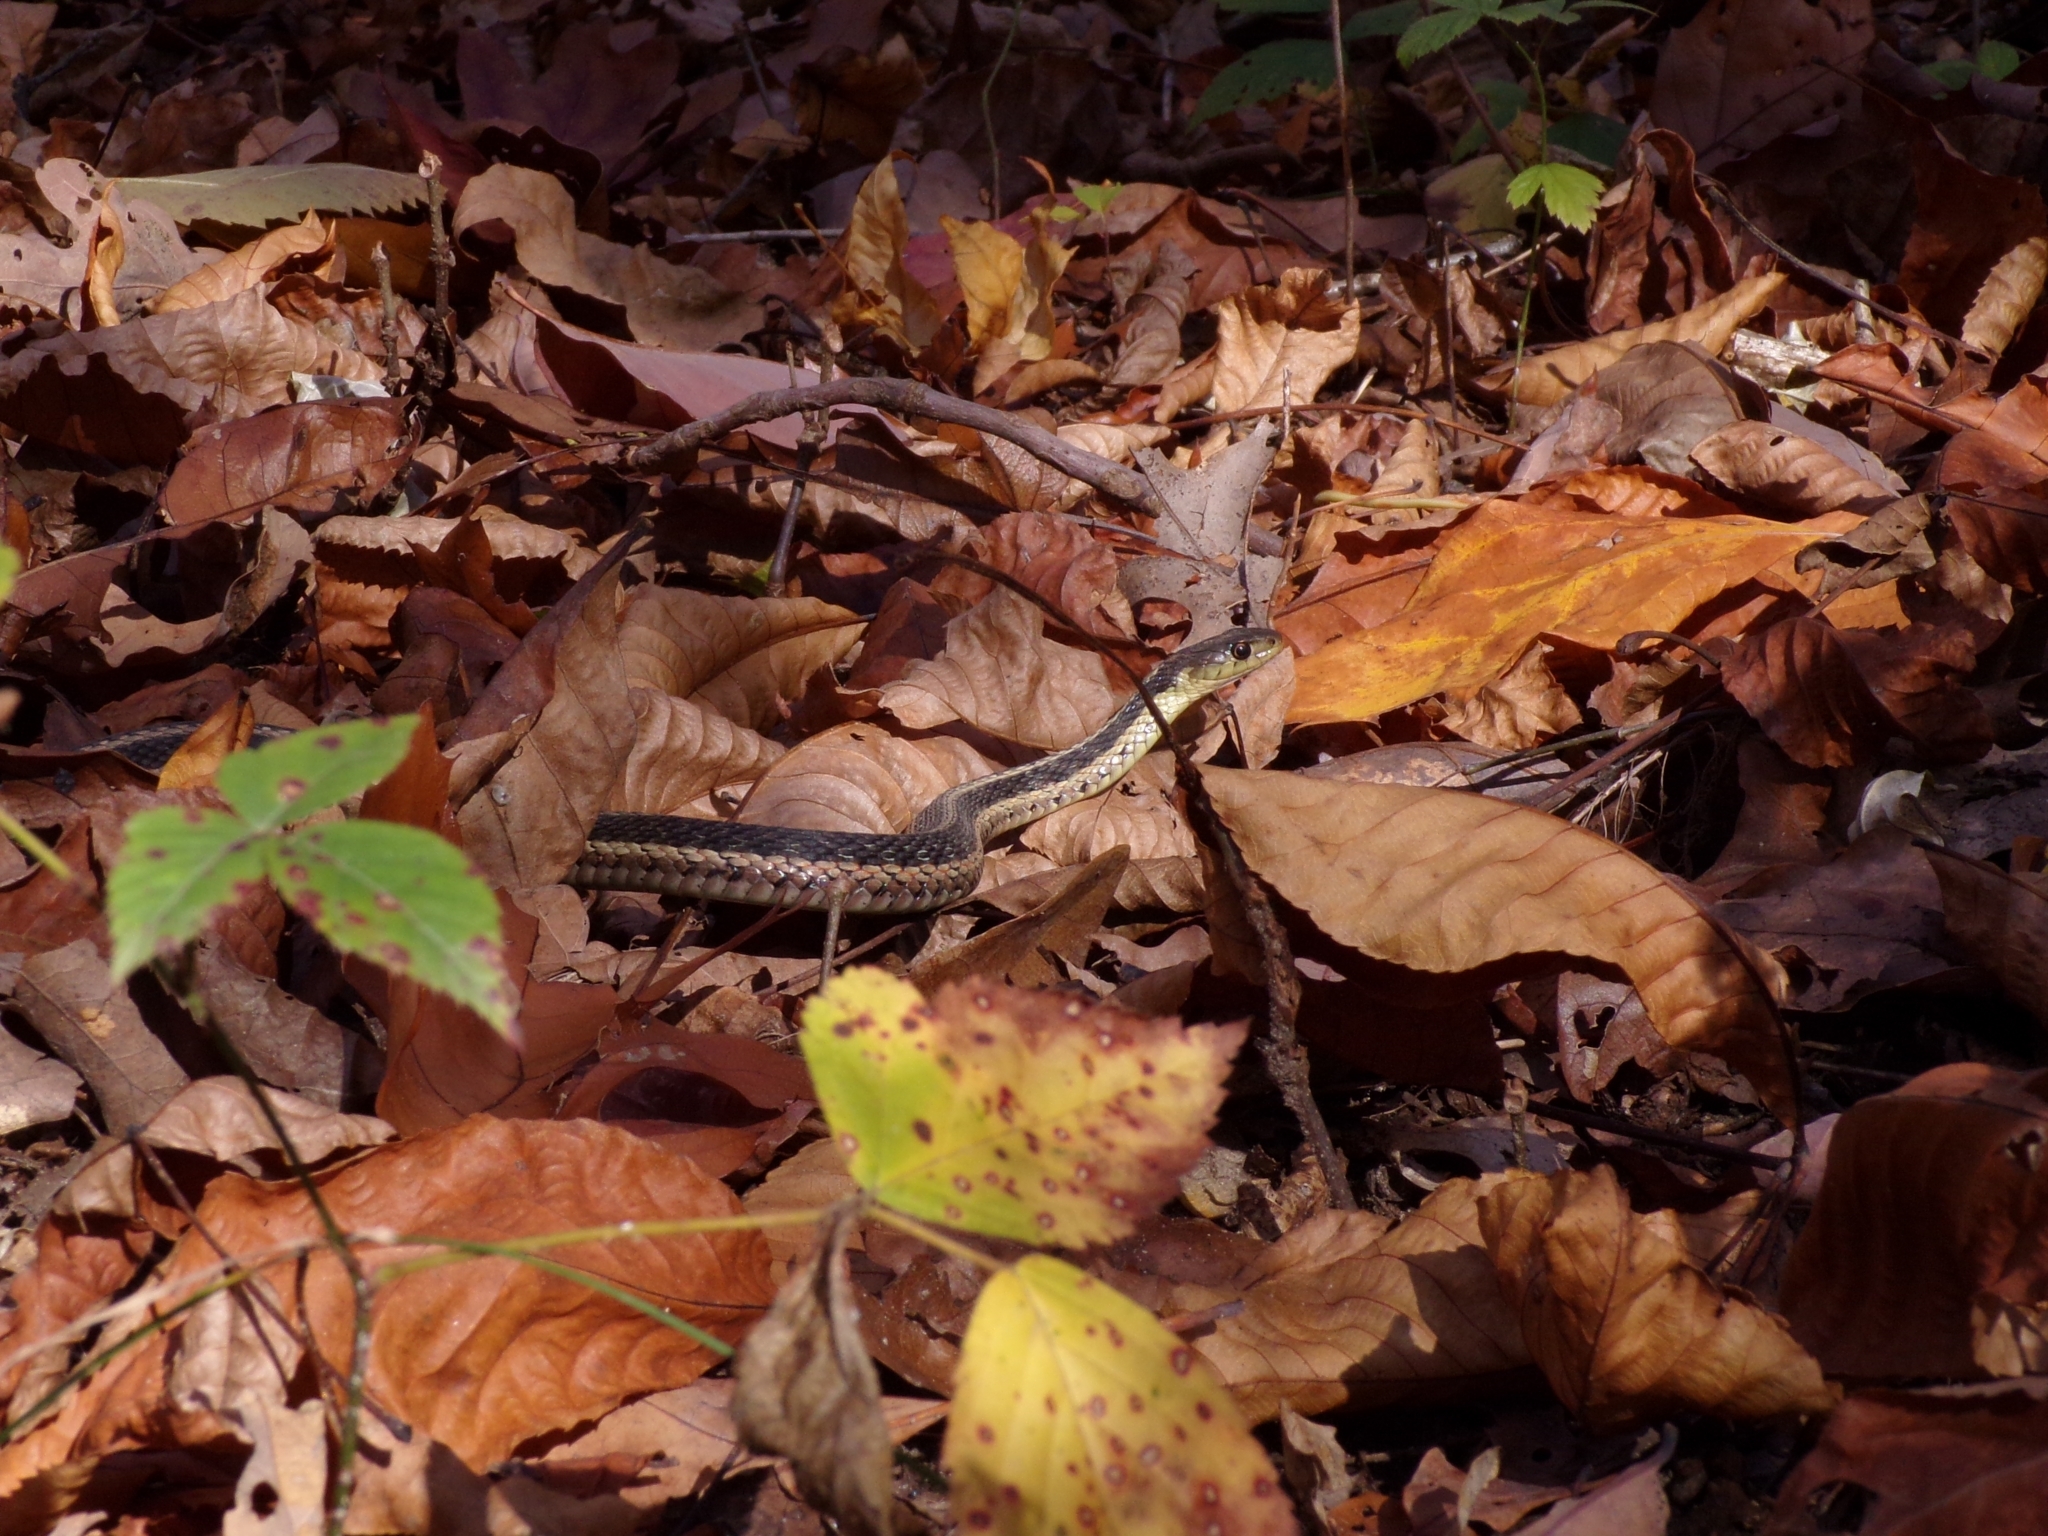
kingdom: Animalia
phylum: Chordata
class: Squamata
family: Colubridae
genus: Thamnophis
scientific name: Thamnophis sirtalis
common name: Common garter snake
